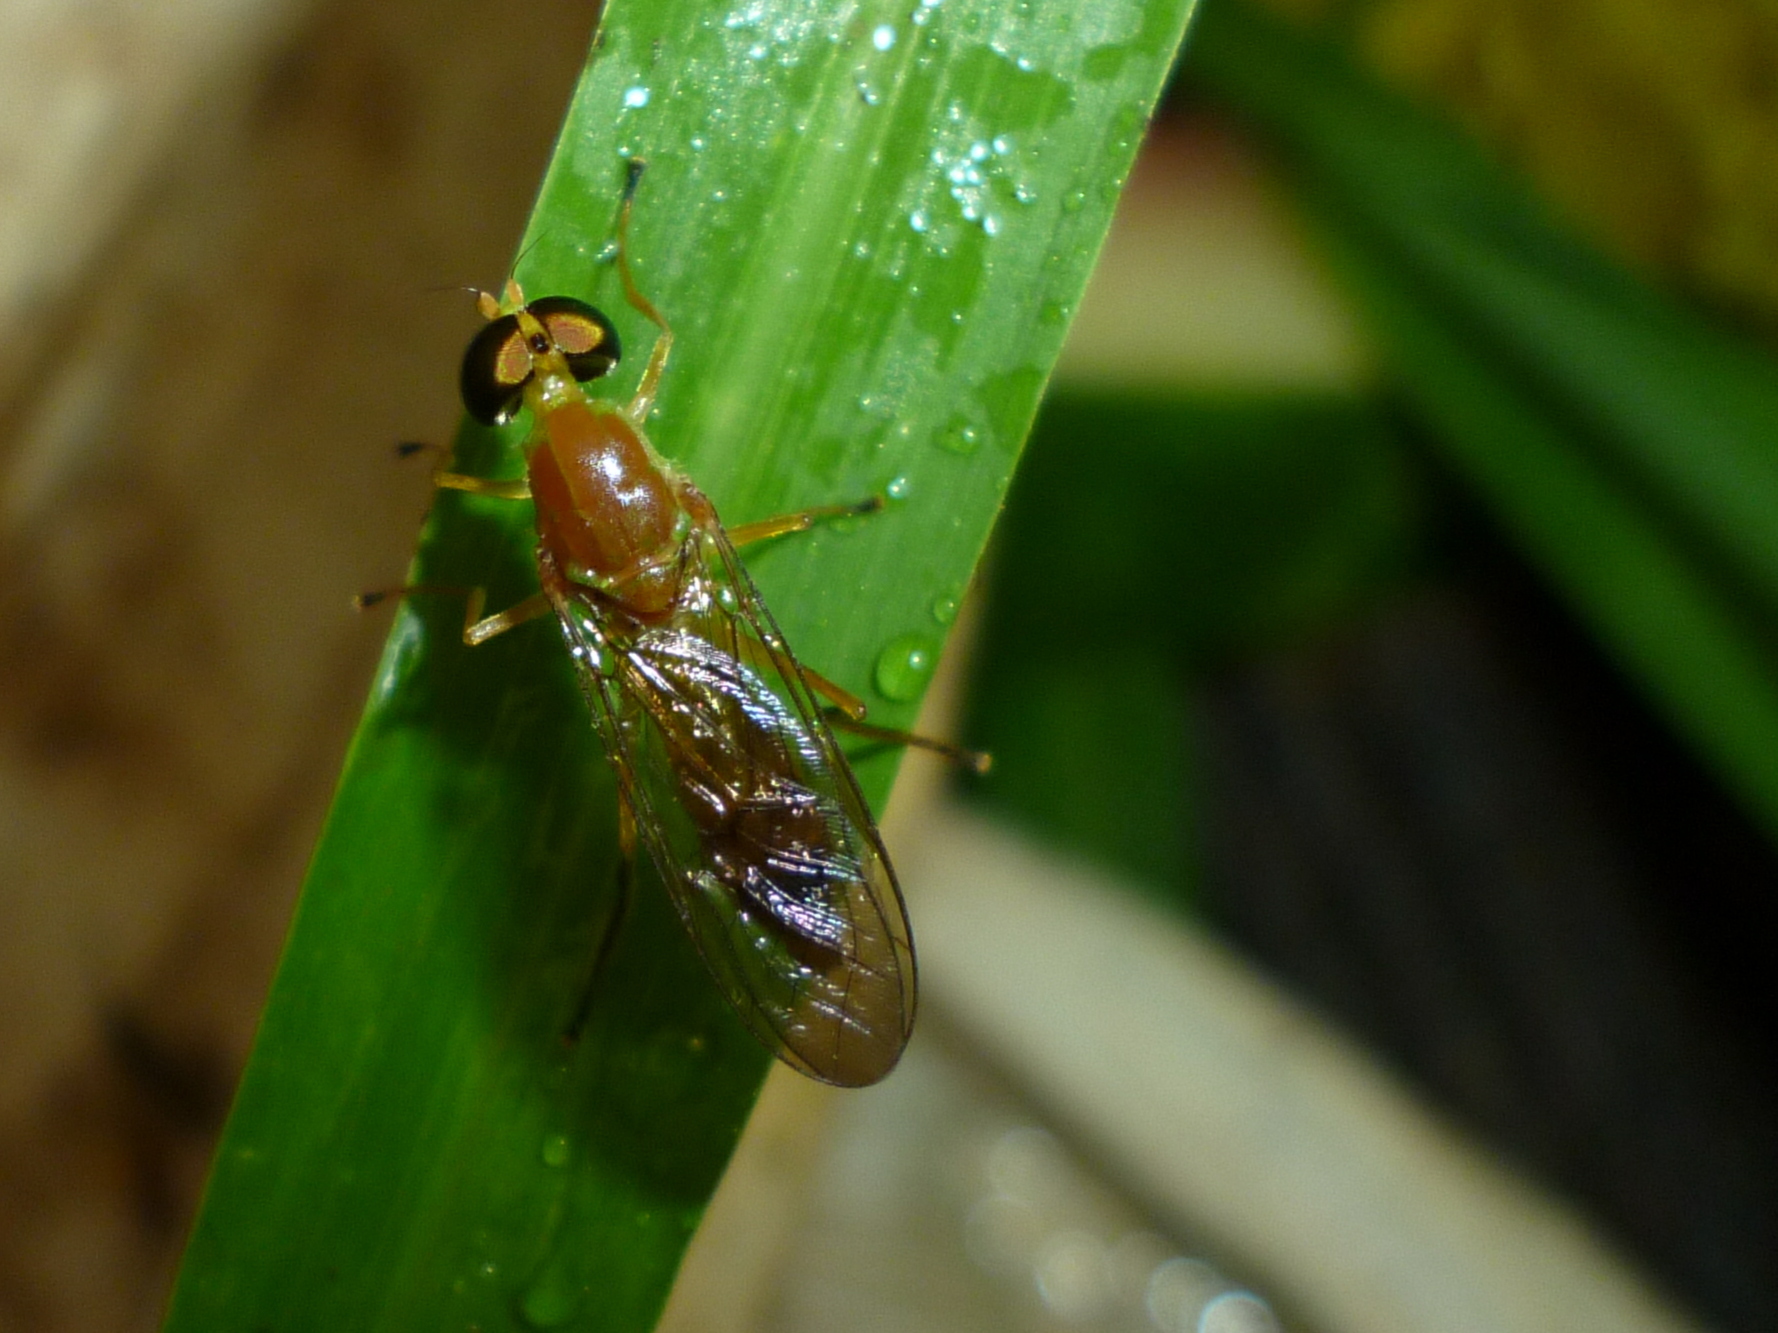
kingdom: Animalia
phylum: Arthropoda
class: Insecta
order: Diptera
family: Stratiomyidae
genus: Ptecticus
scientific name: Ptecticus trivittatus
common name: Compost fly
